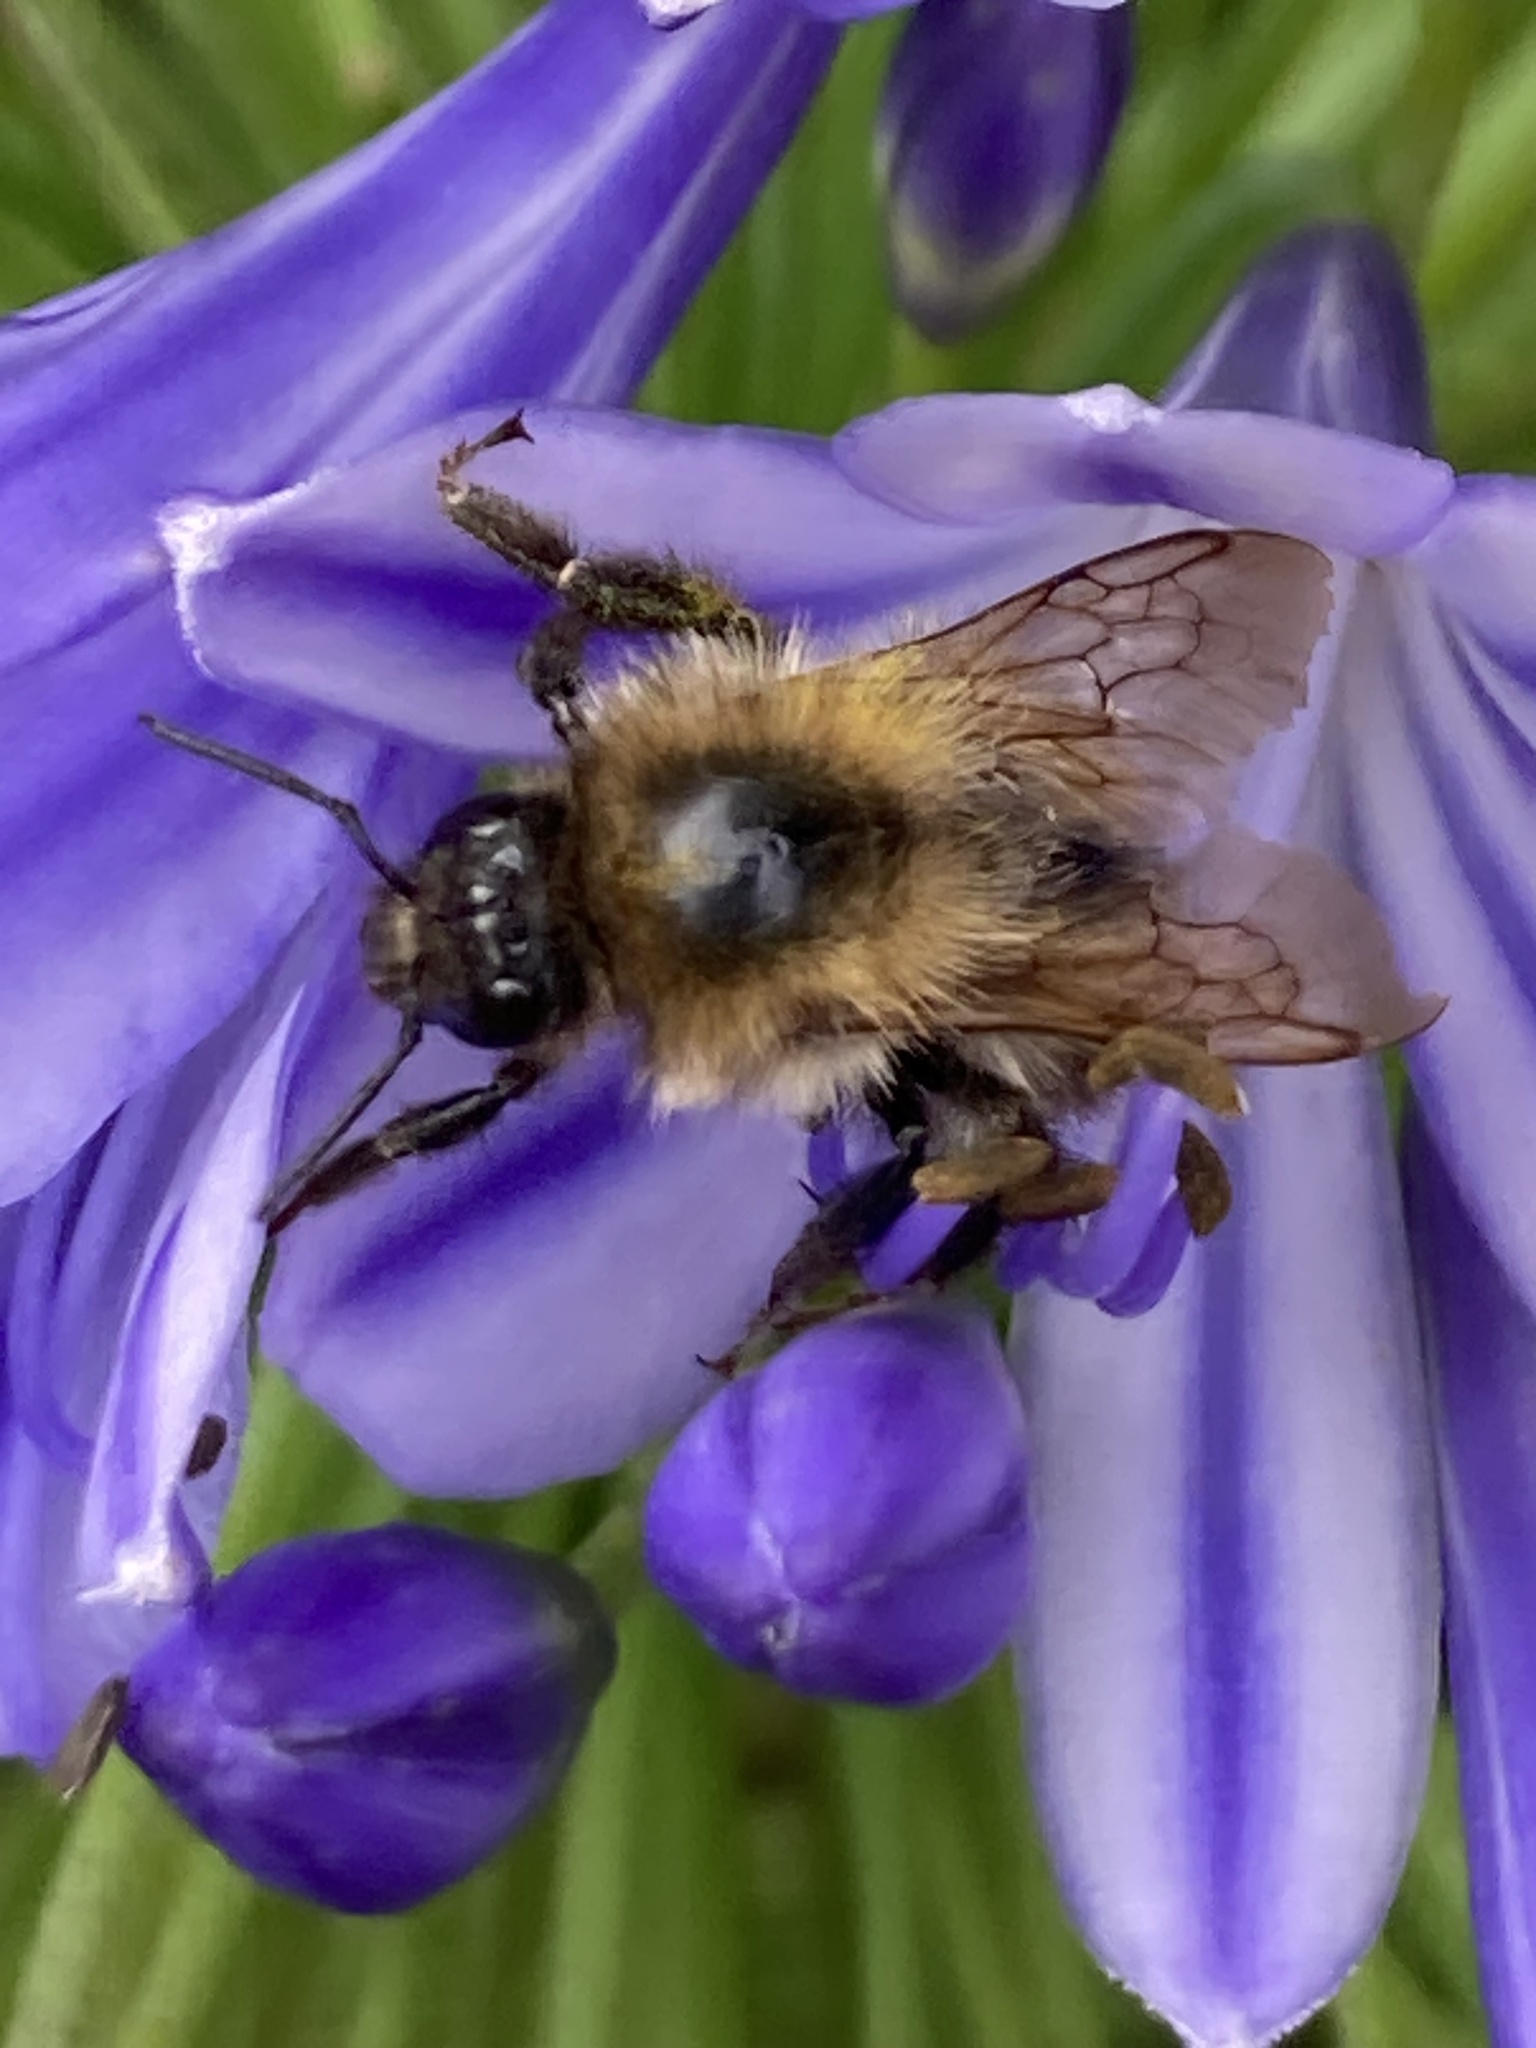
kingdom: Animalia
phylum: Arthropoda
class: Insecta
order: Hymenoptera
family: Apidae
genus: Bombus
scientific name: Bombus pascuorum
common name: Common carder bee
